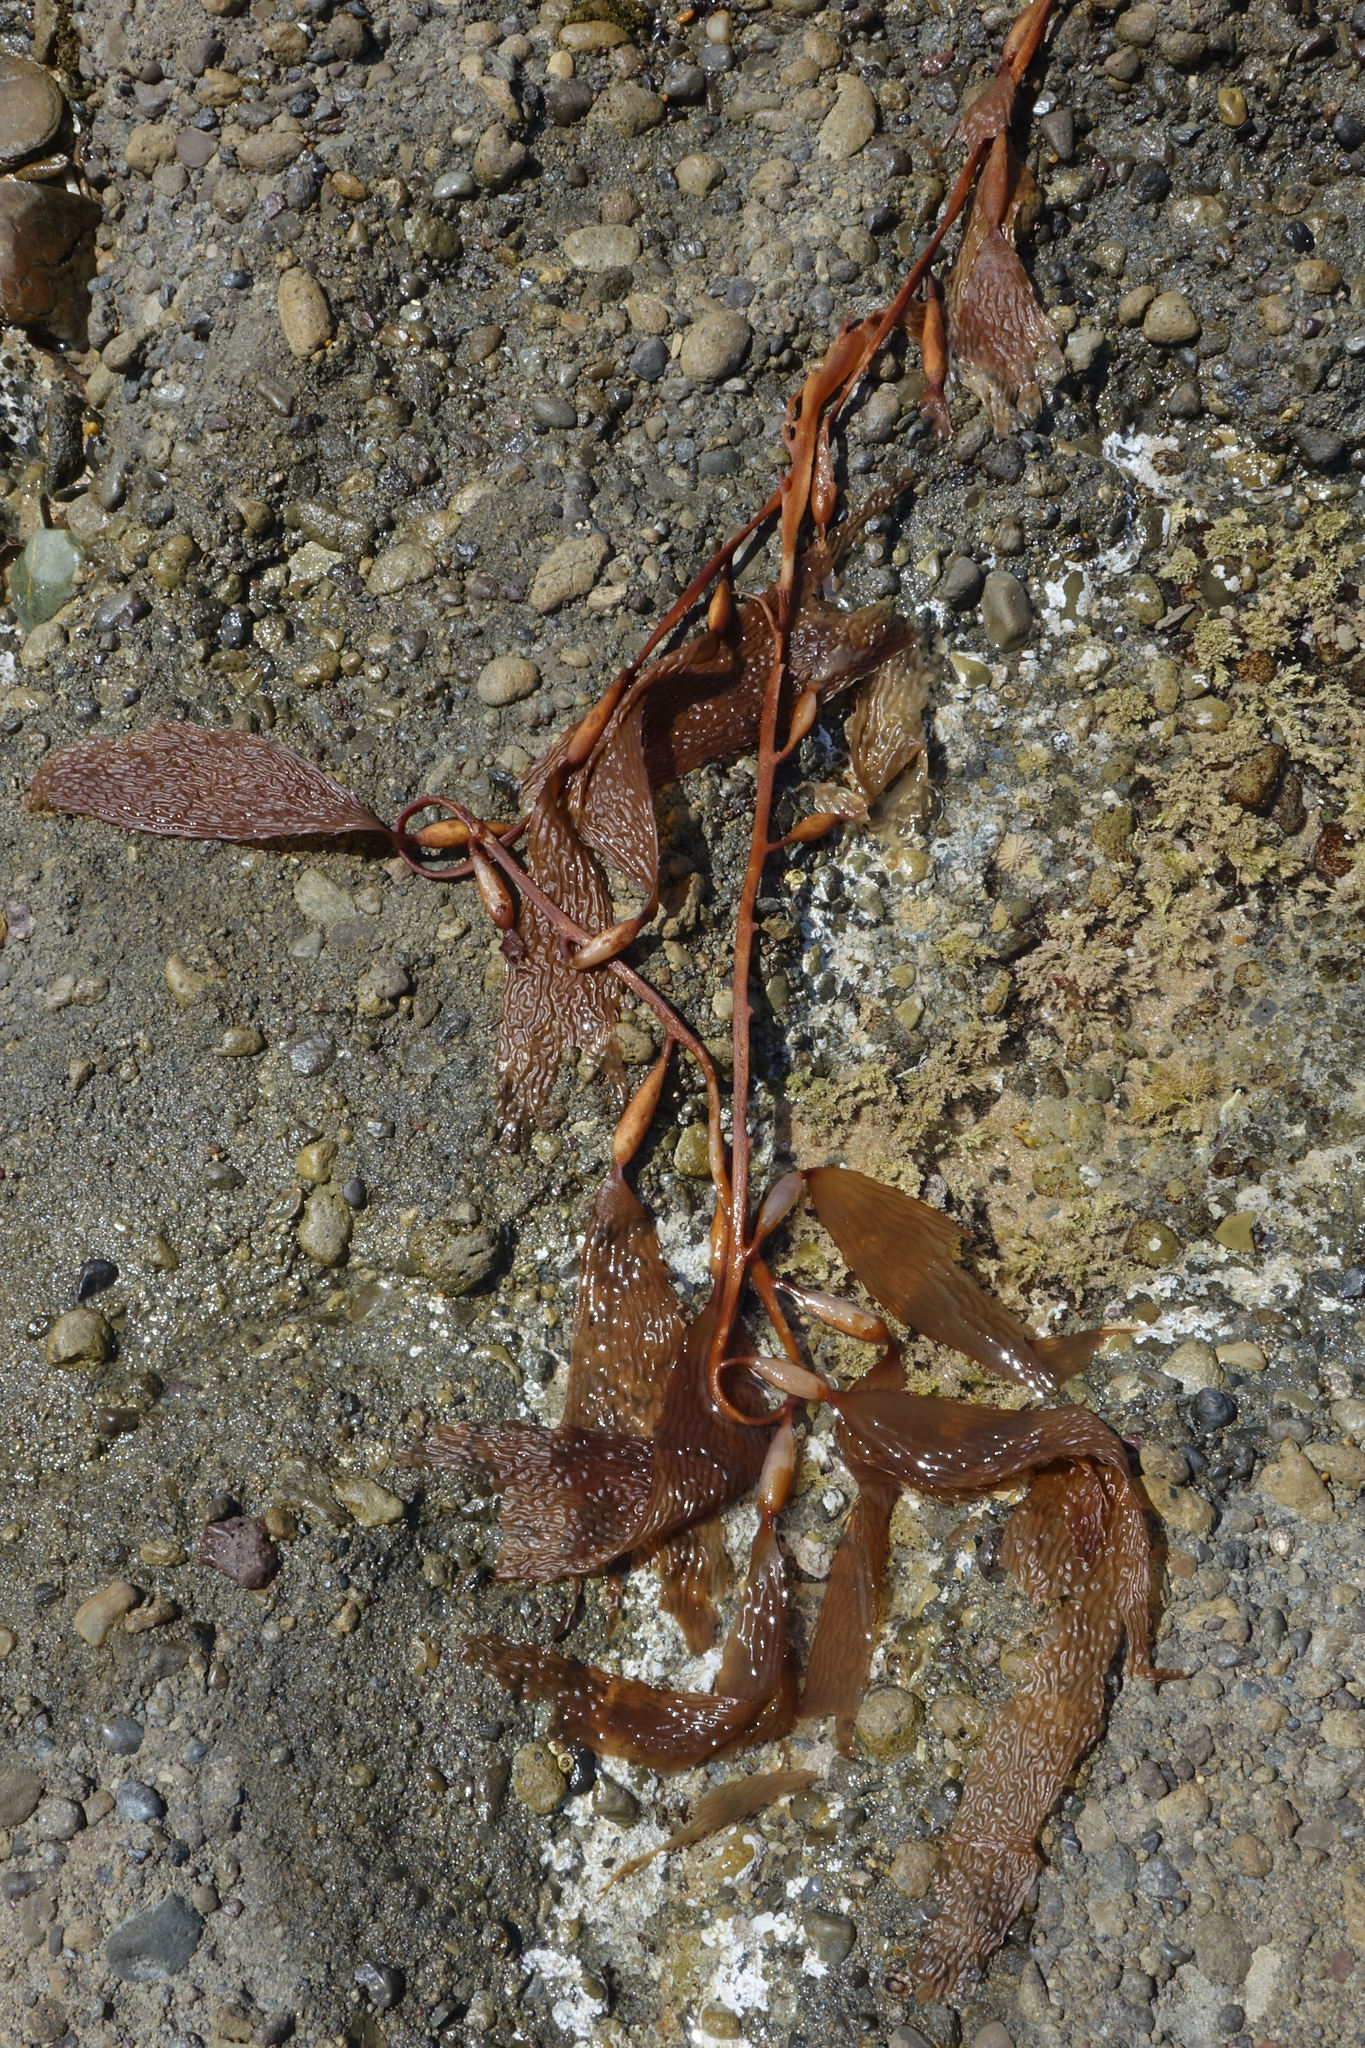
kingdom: Chromista
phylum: Ochrophyta
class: Phaeophyceae
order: Laminariales
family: Laminariaceae
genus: Macrocystis
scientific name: Macrocystis pyrifera
